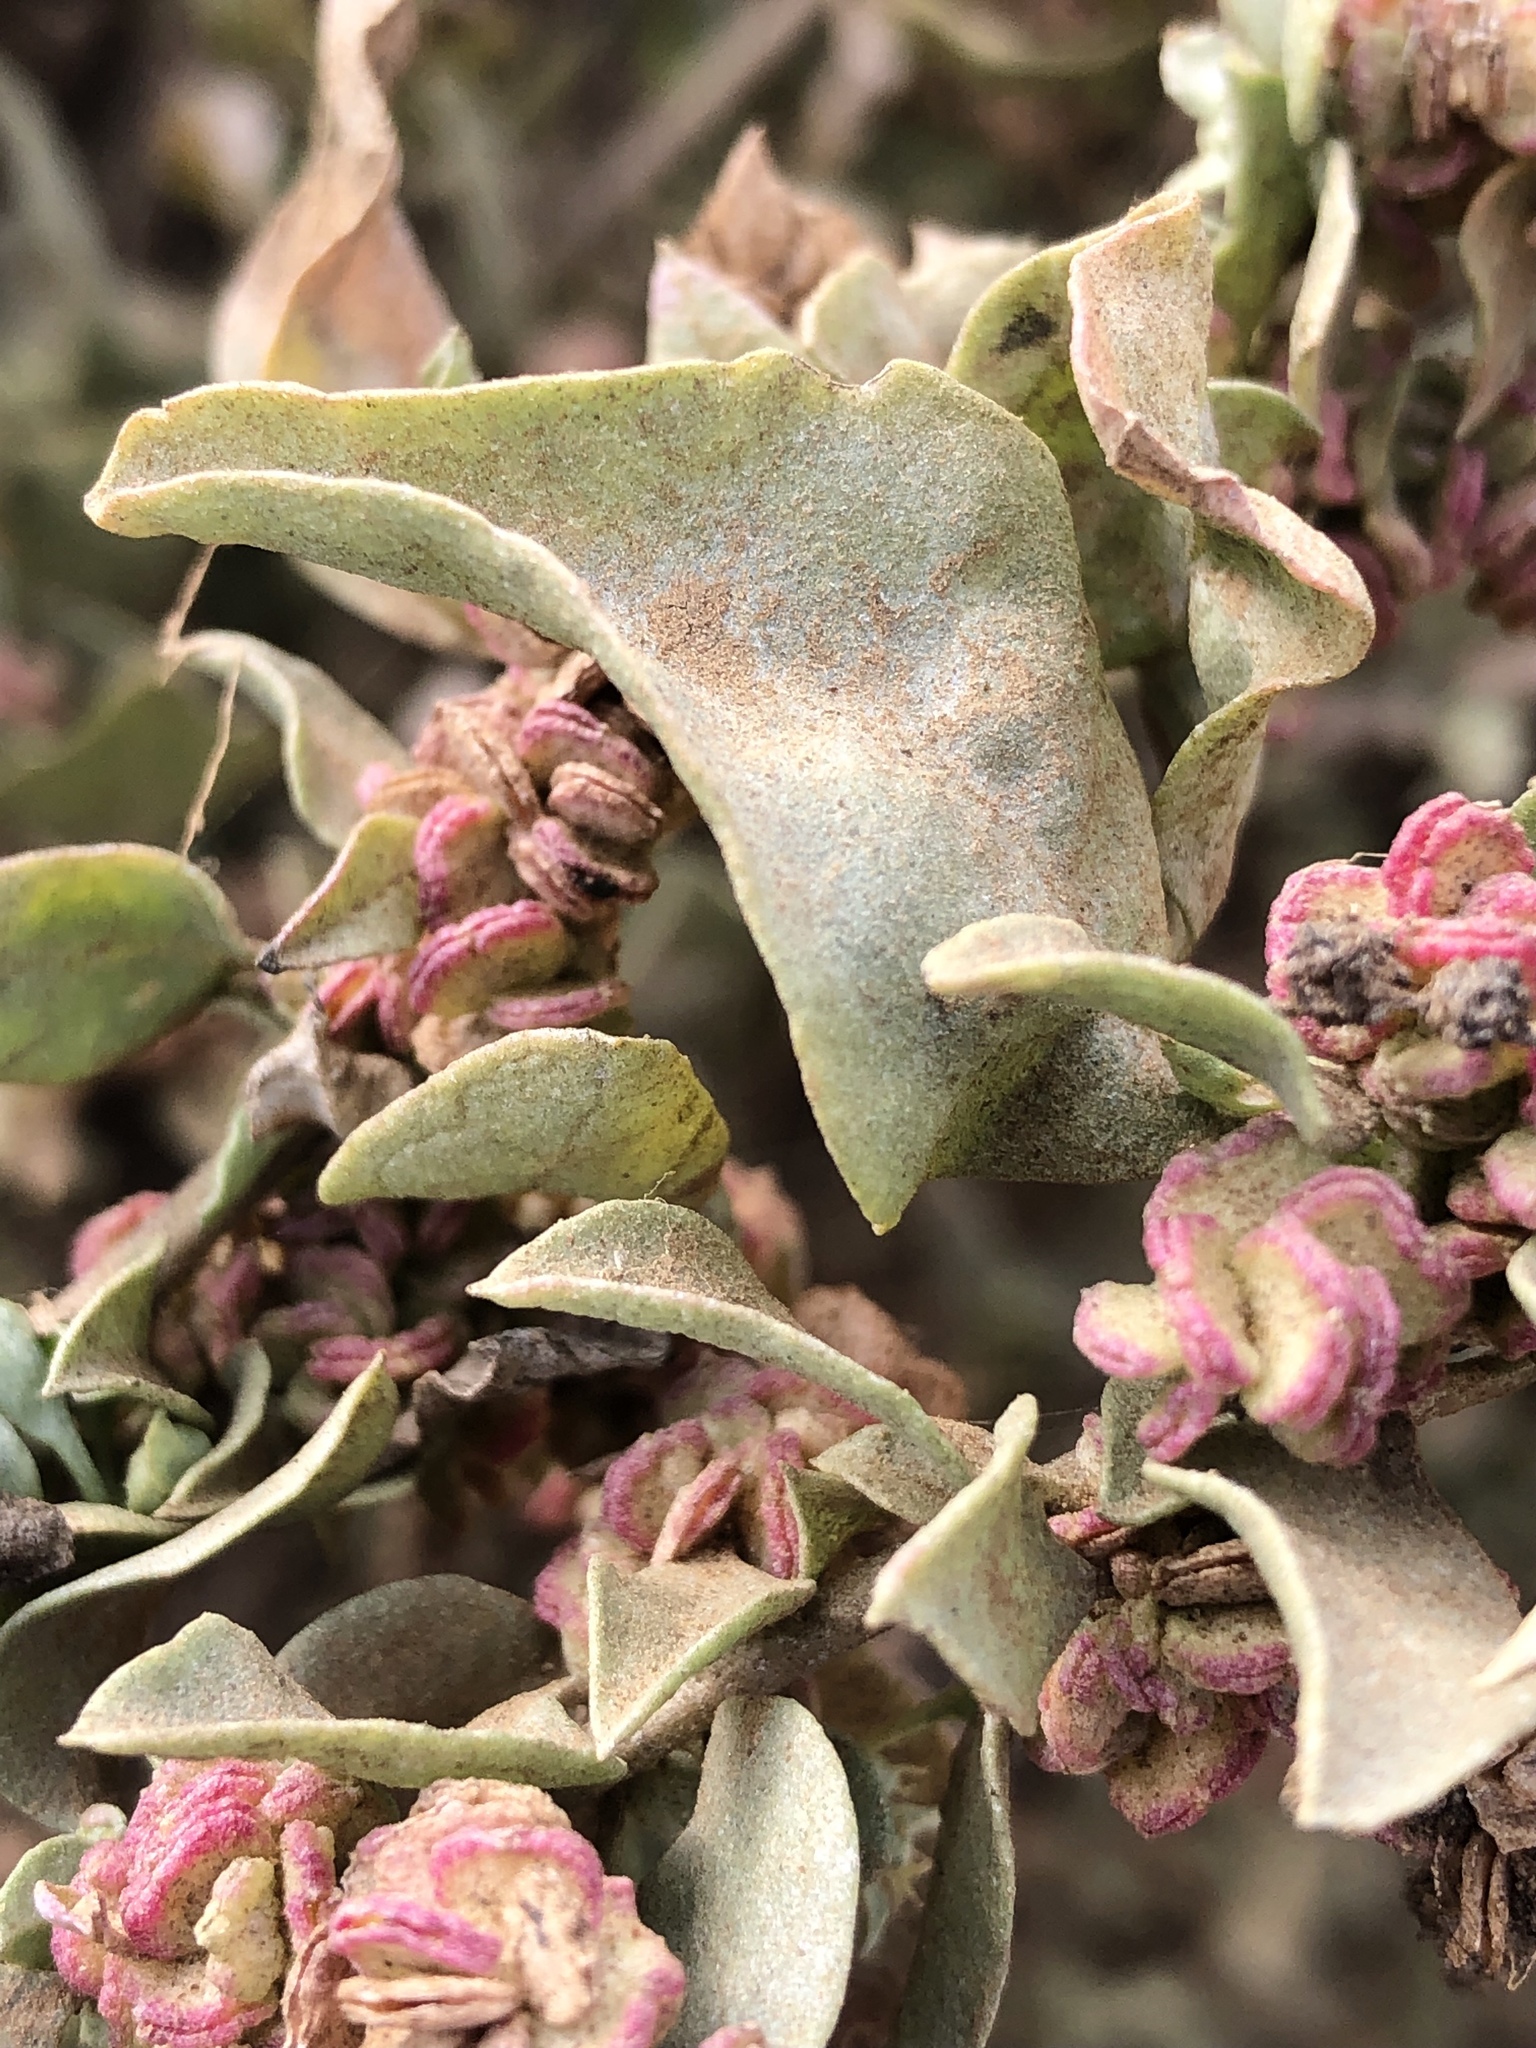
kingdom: Plantae
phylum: Tracheophyta
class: Magnoliopsida
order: Caryophyllales
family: Amaranthaceae
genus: Atriplex
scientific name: Atriplex lentiformis
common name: Big saltbush
